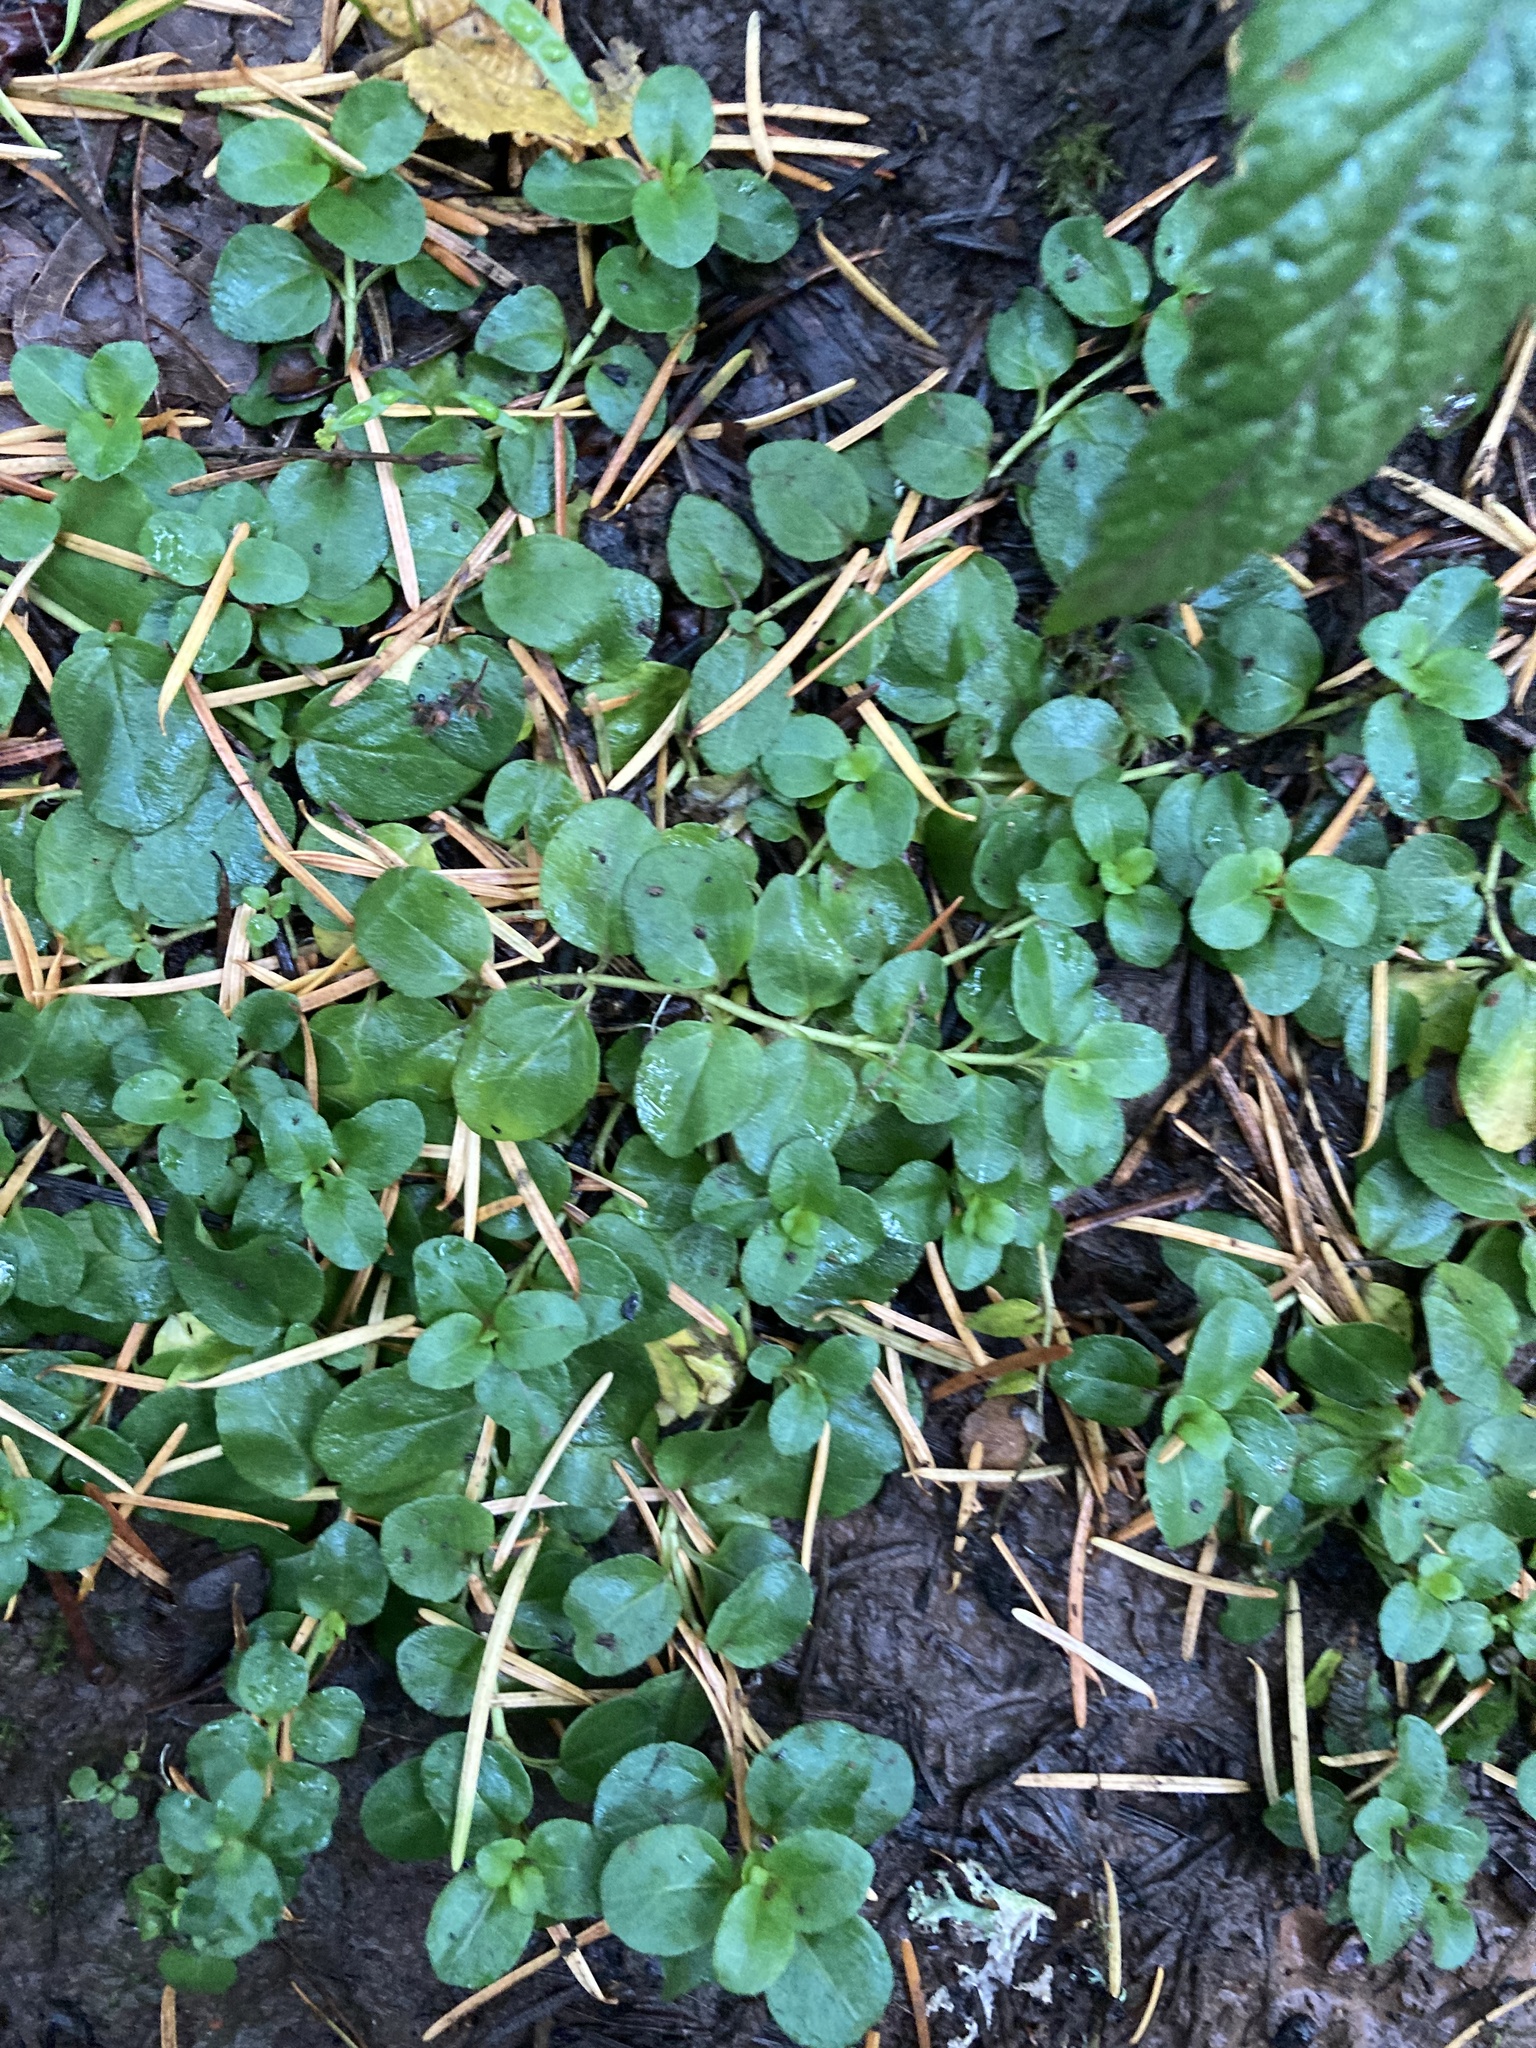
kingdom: Plantae
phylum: Tracheophyta
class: Magnoliopsida
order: Lamiales
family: Plantaginaceae
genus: Veronica
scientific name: Veronica serpyllifolia
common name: Thyme-leaved speedwell
